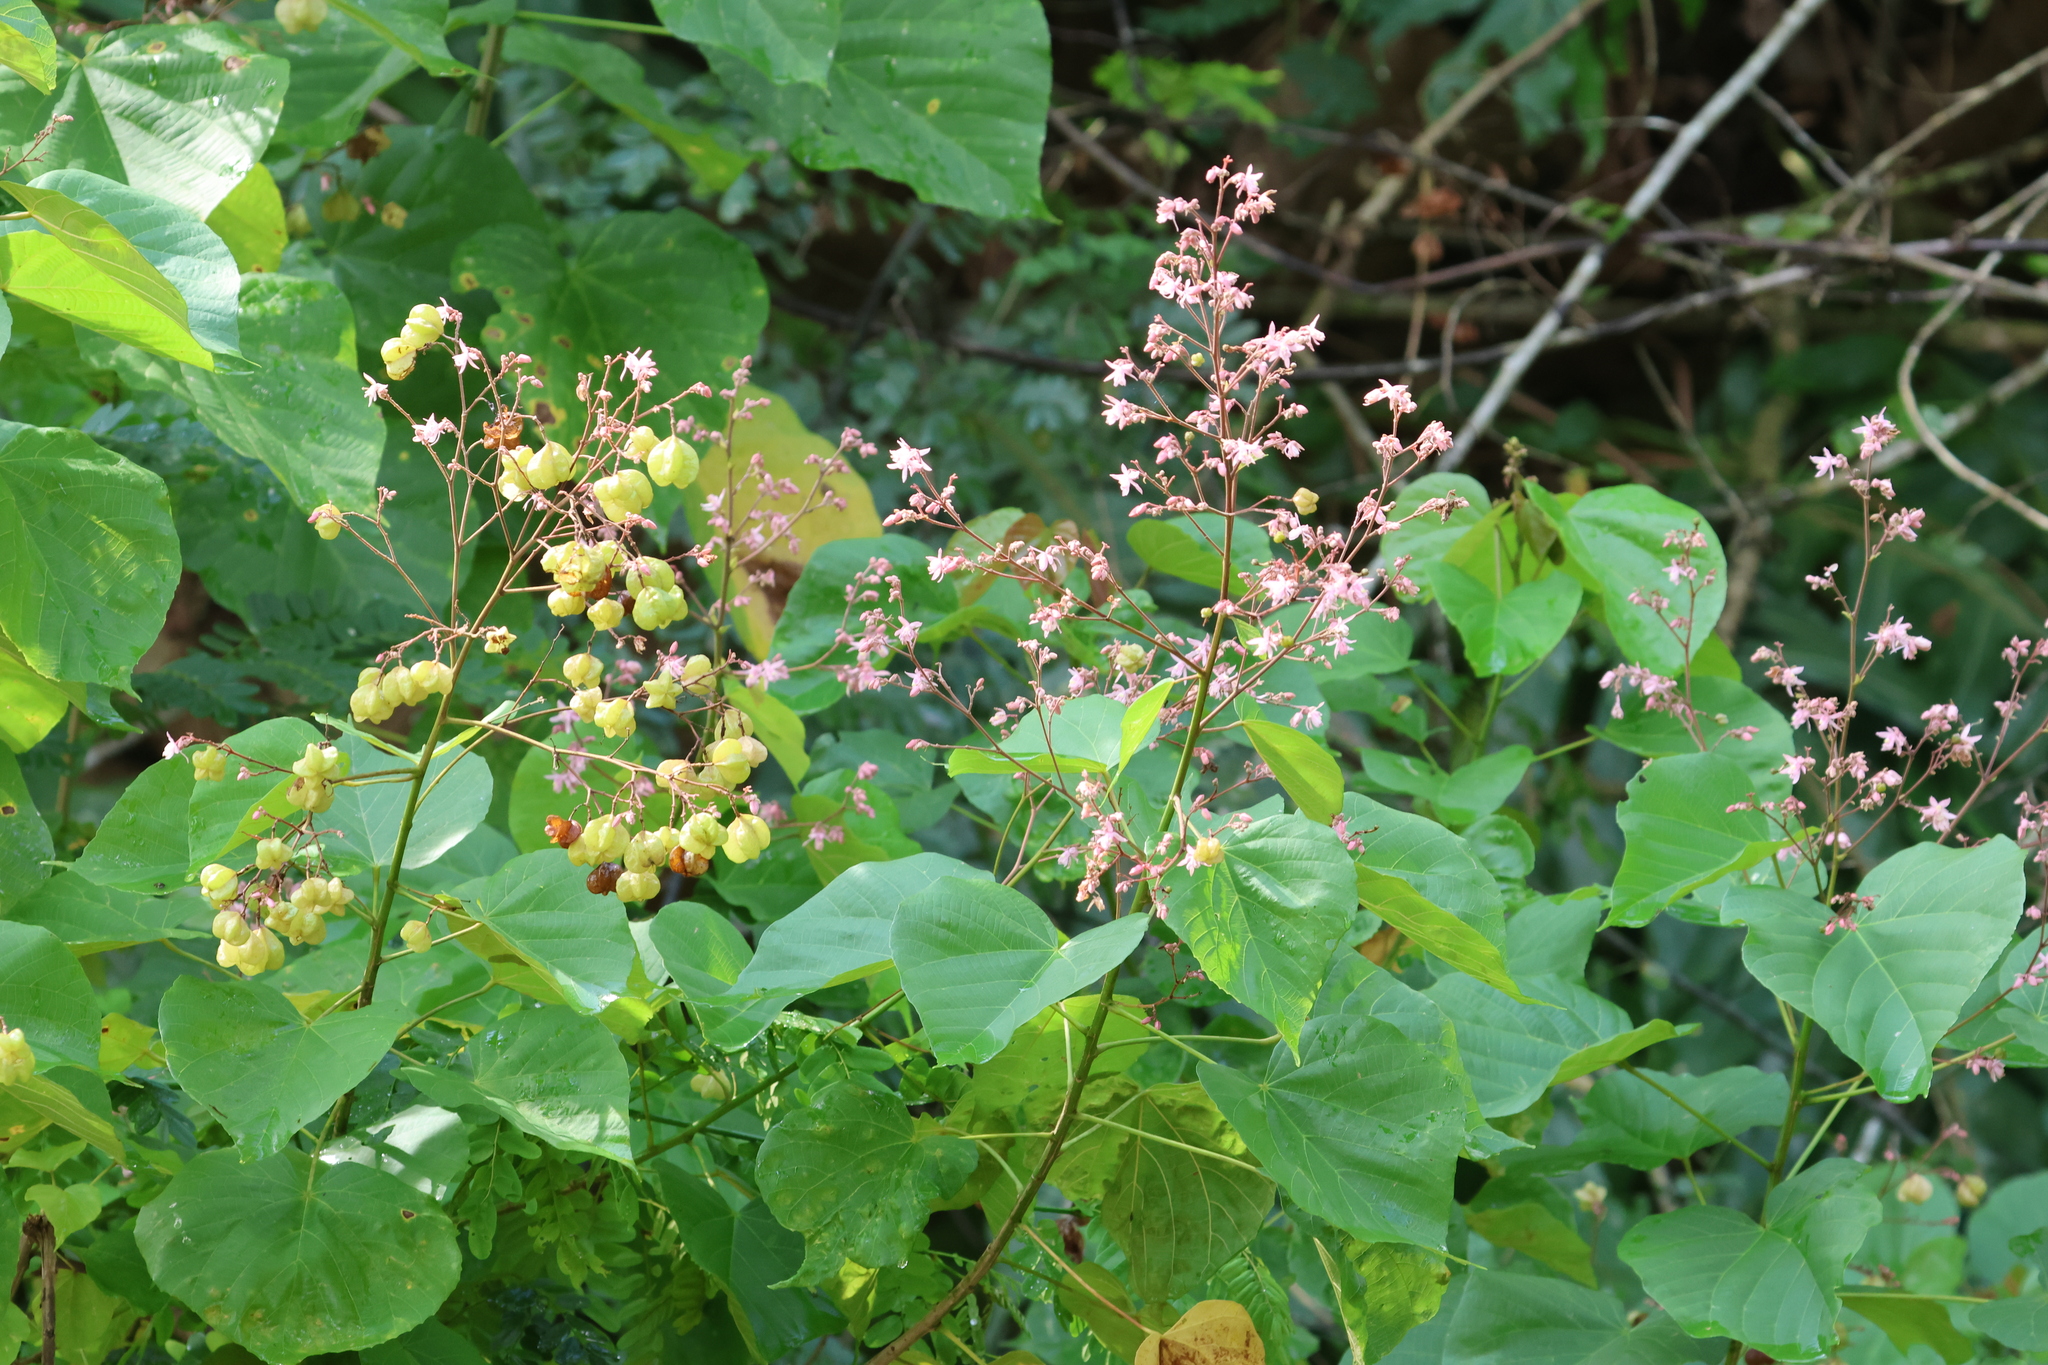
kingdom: Plantae
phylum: Tracheophyta
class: Magnoliopsida
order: Malvales
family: Malvaceae
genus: Kleinhovia
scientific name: Kleinhovia hospita
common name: Guest-tree
